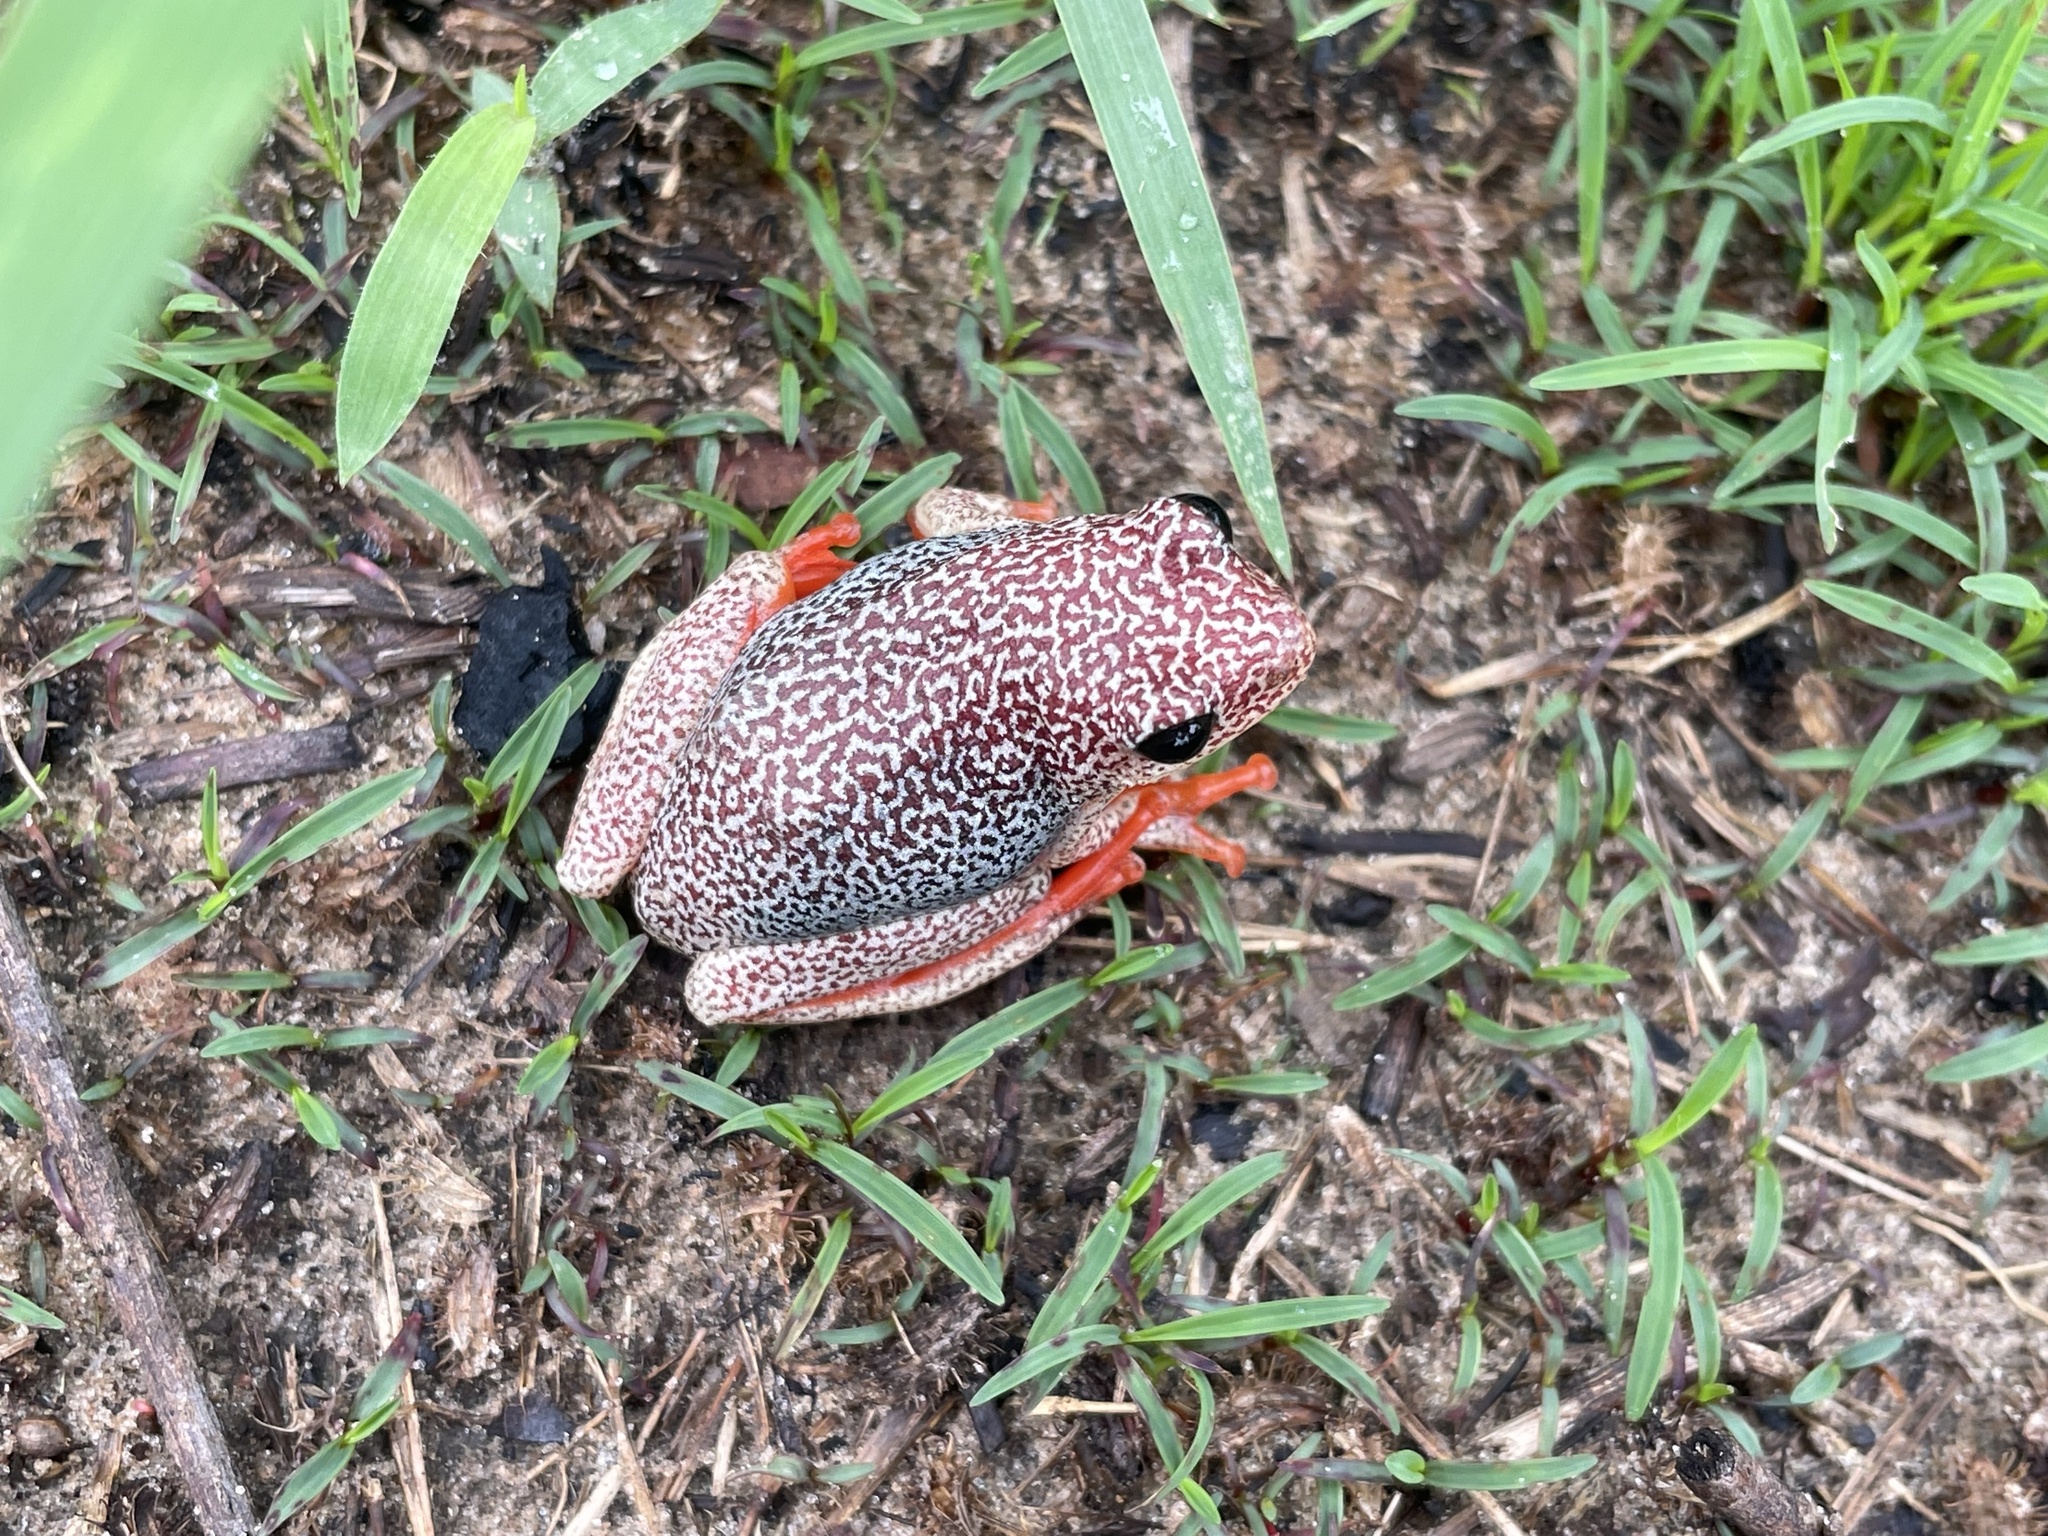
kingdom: Animalia
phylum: Chordata
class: Amphibia
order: Anura
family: Hyperoliidae
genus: Hyperolius
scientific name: Hyperolius parallelus
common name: Angolan reed frog
